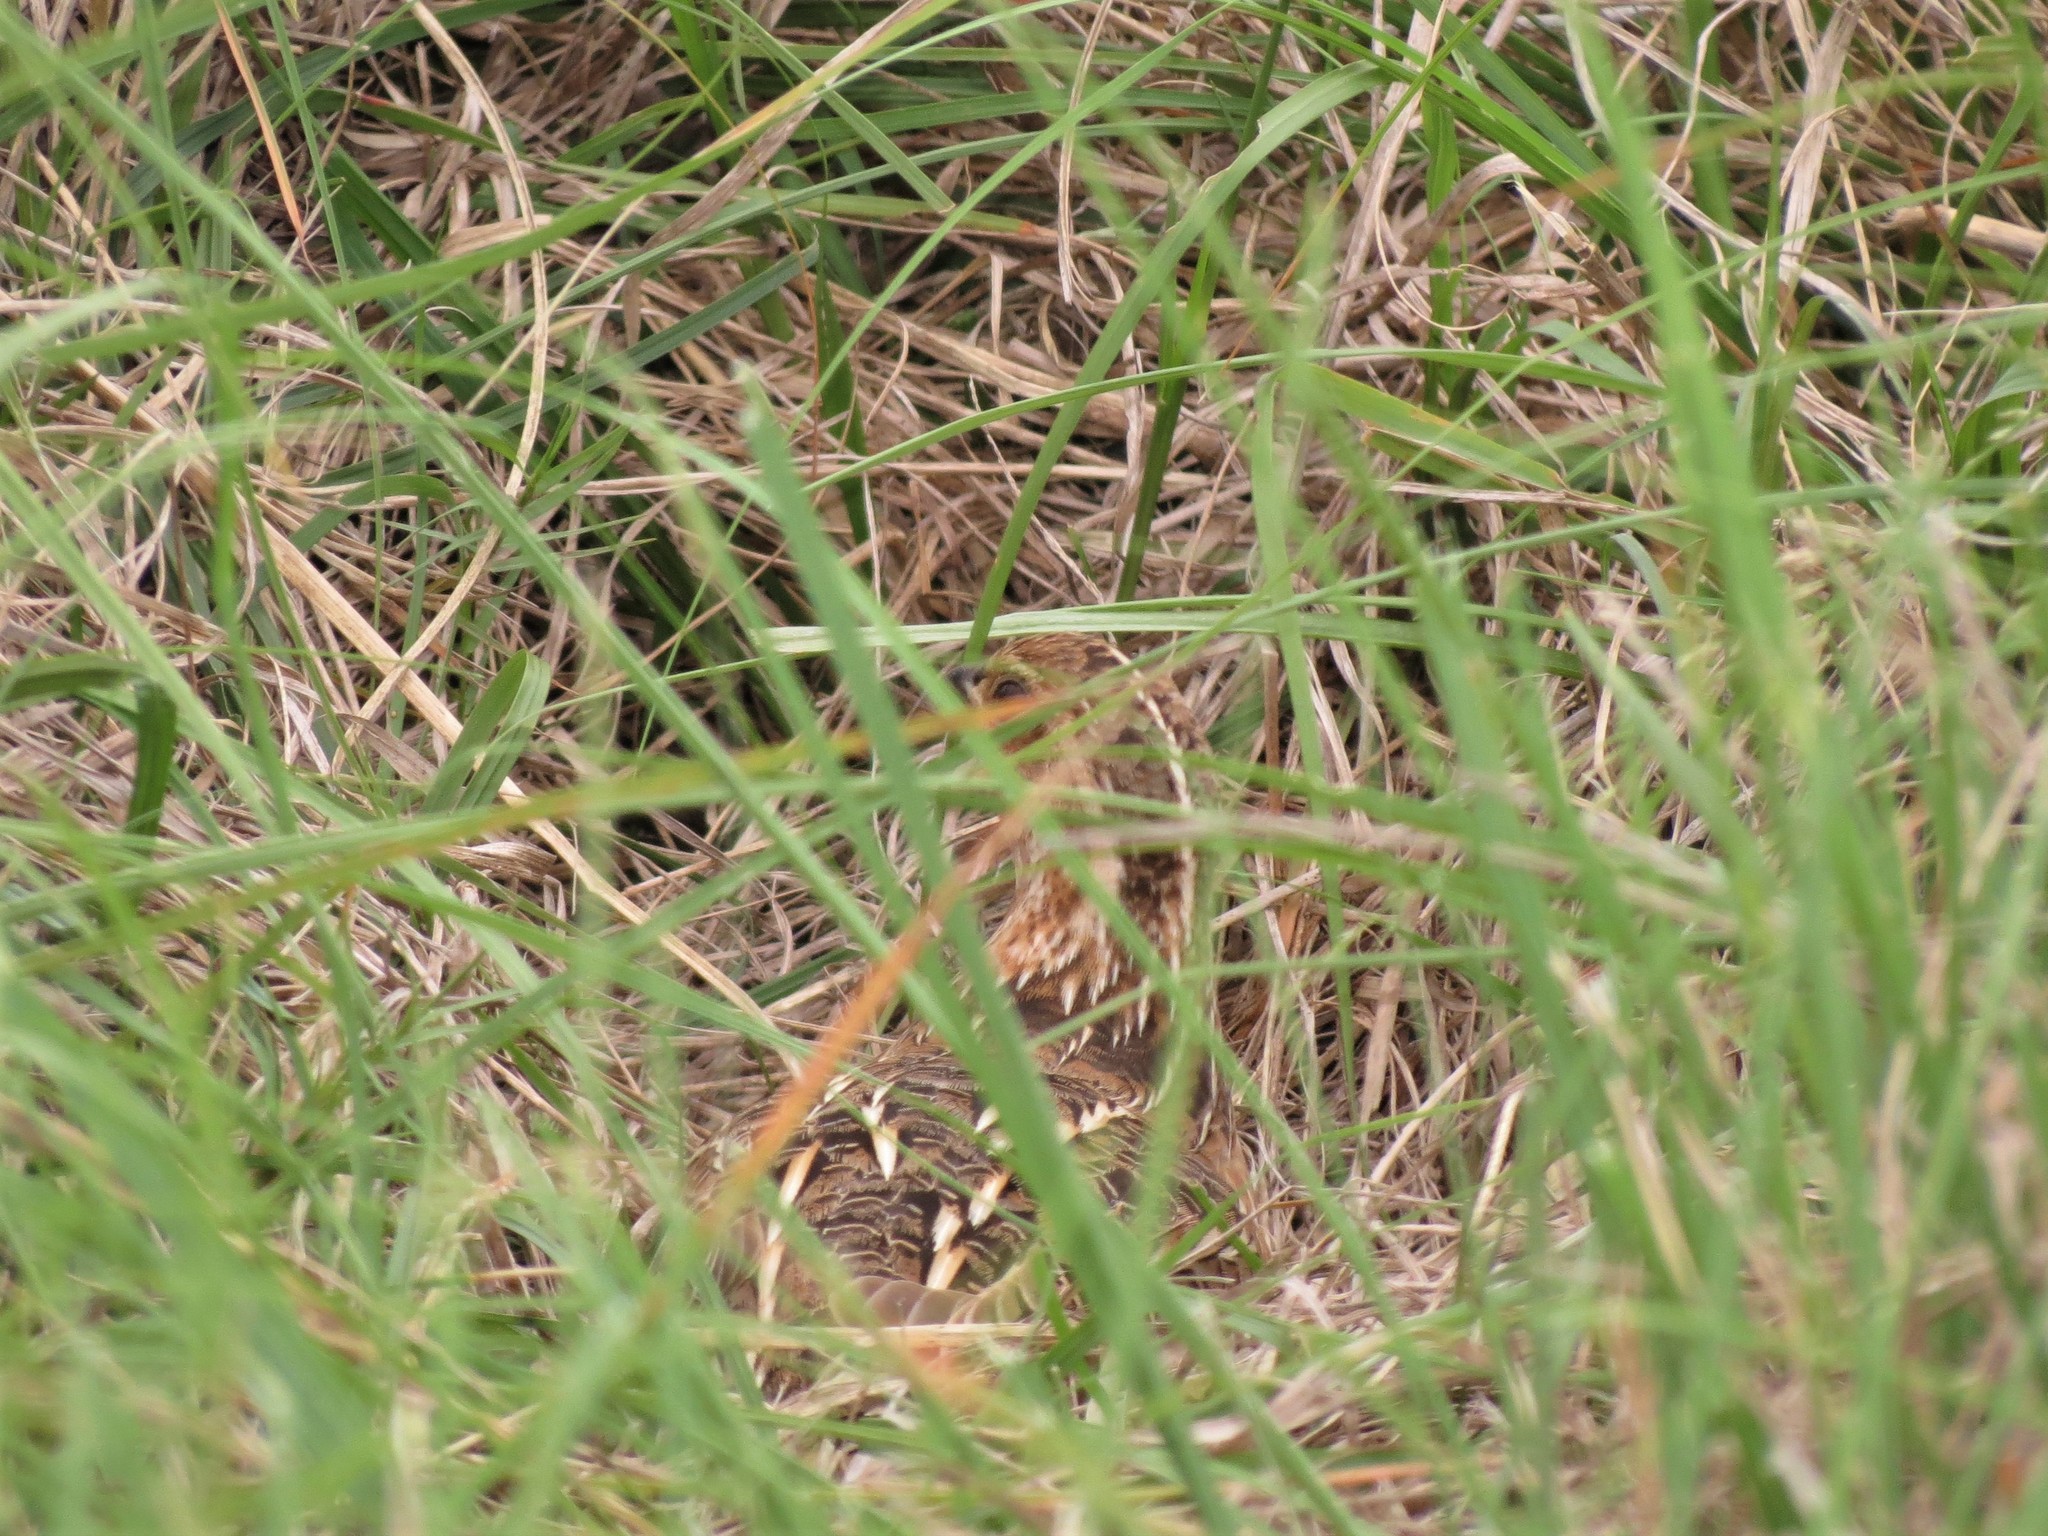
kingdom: Animalia
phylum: Chordata
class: Aves
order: Galliformes
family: Phasianidae
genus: Coturnix
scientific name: Coturnix coturnix
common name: Common quail
